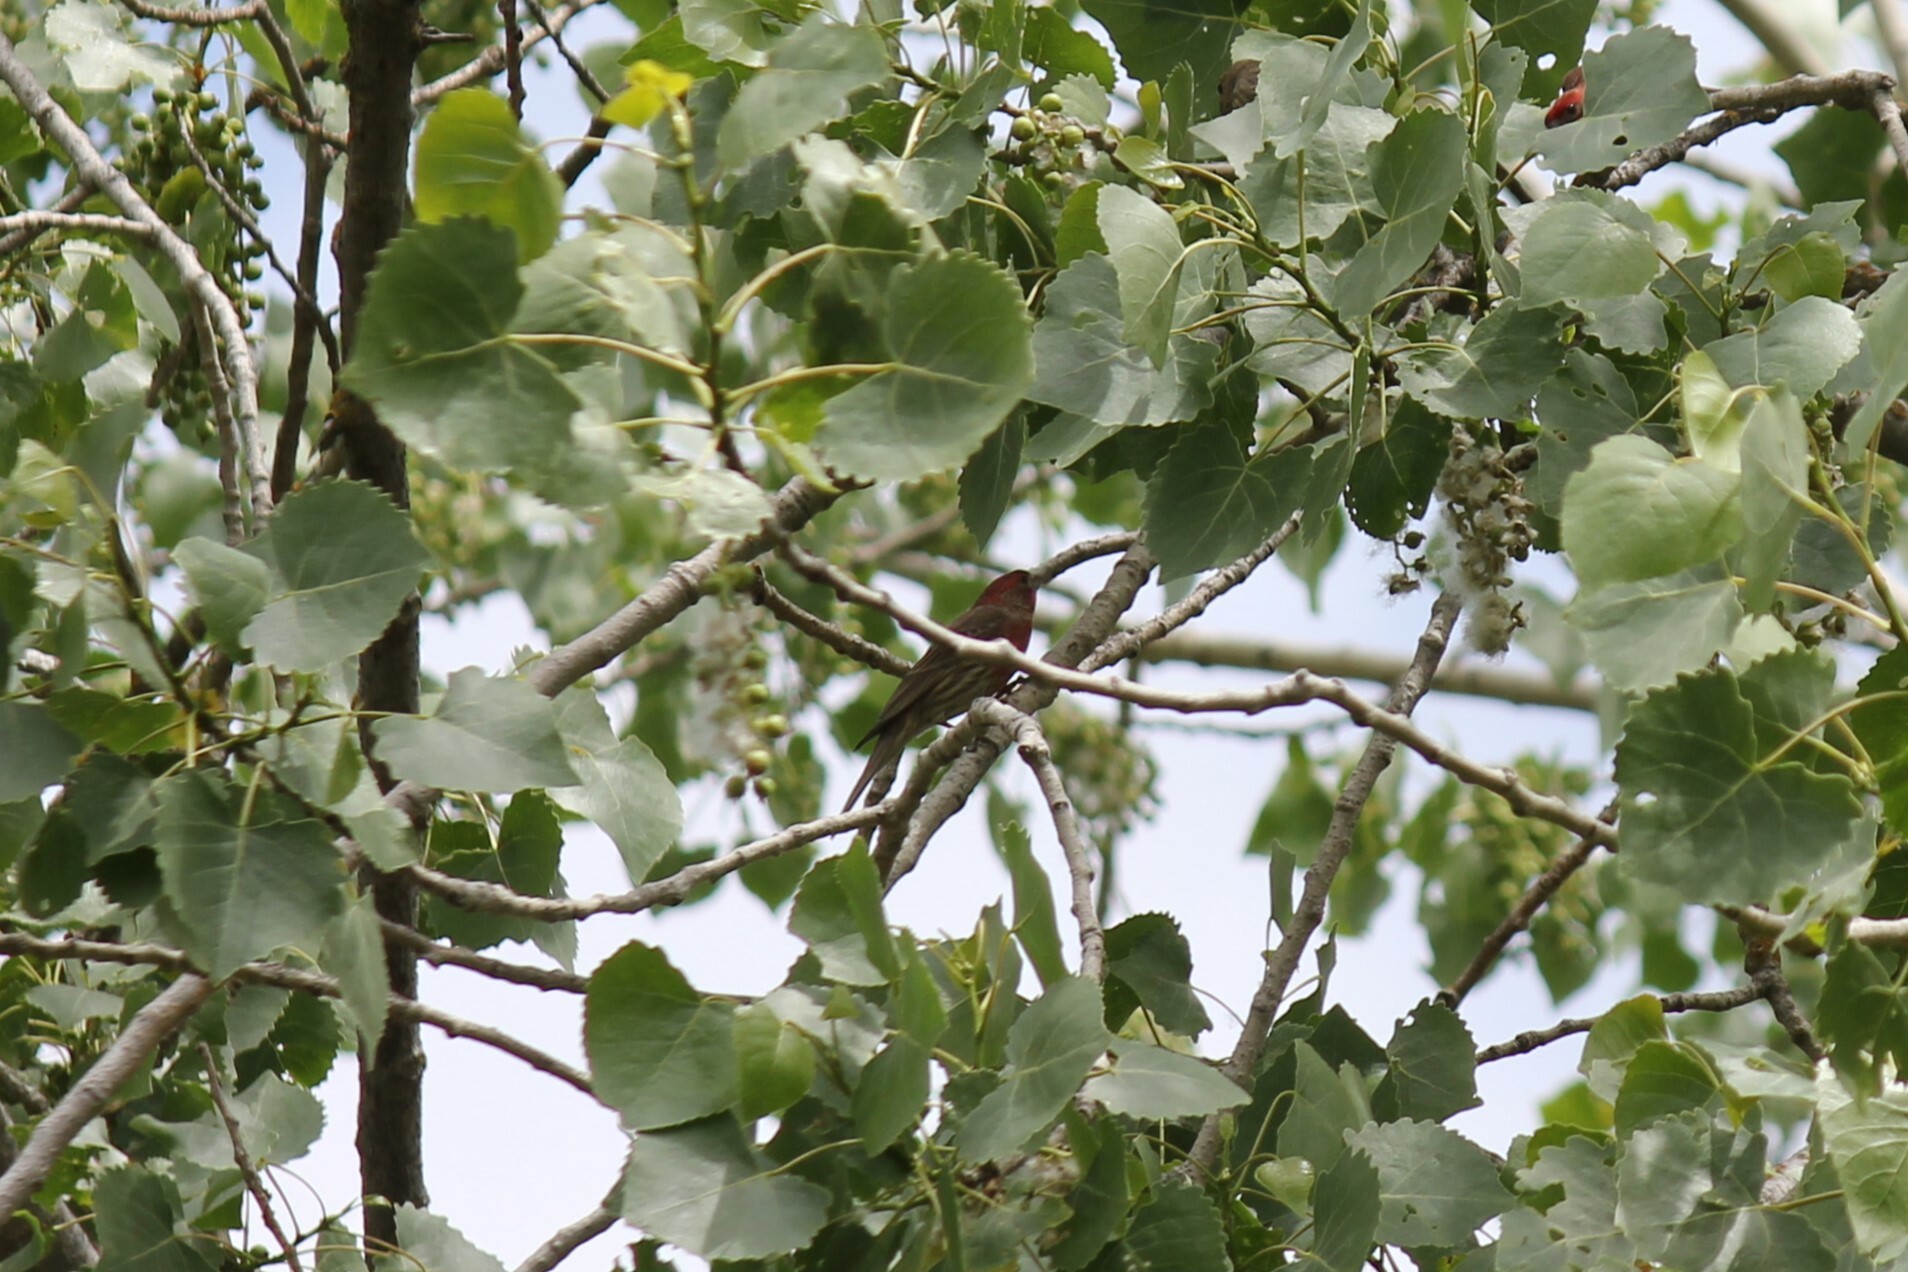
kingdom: Animalia
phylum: Chordata
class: Aves
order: Passeriformes
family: Fringillidae
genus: Haemorhous
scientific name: Haemorhous mexicanus
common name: House finch
